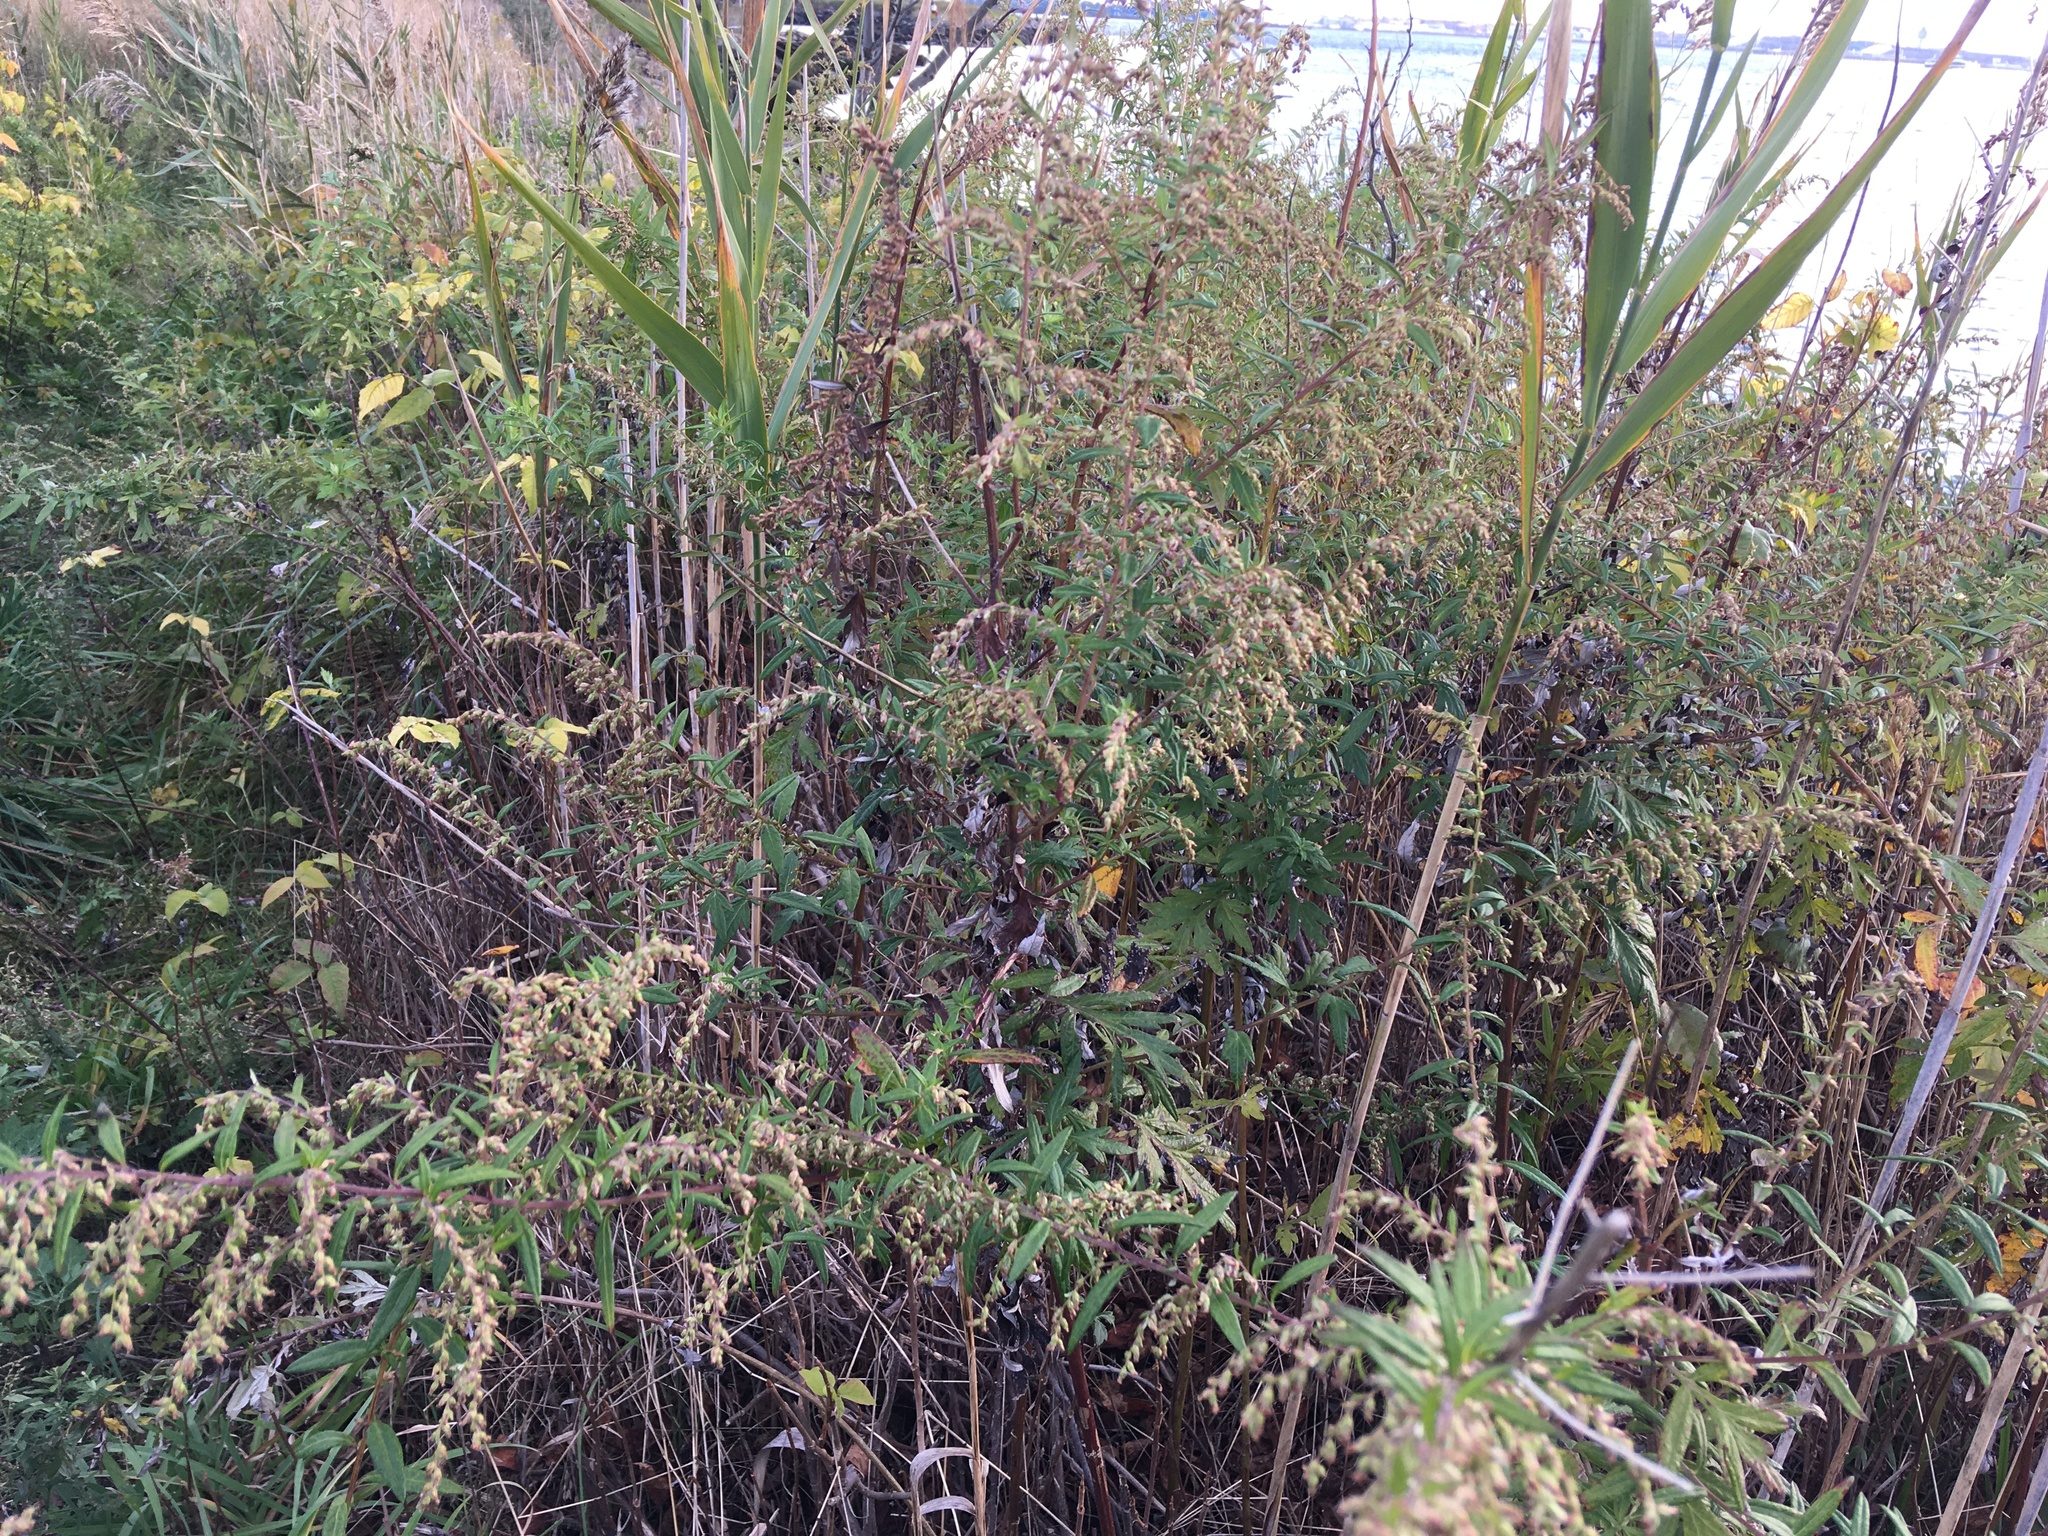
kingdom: Plantae
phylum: Tracheophyta
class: Magnoliopsida
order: Asterales
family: Asteraceae
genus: Artemisia
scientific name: Artemisia vulgaris
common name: Mugwort
